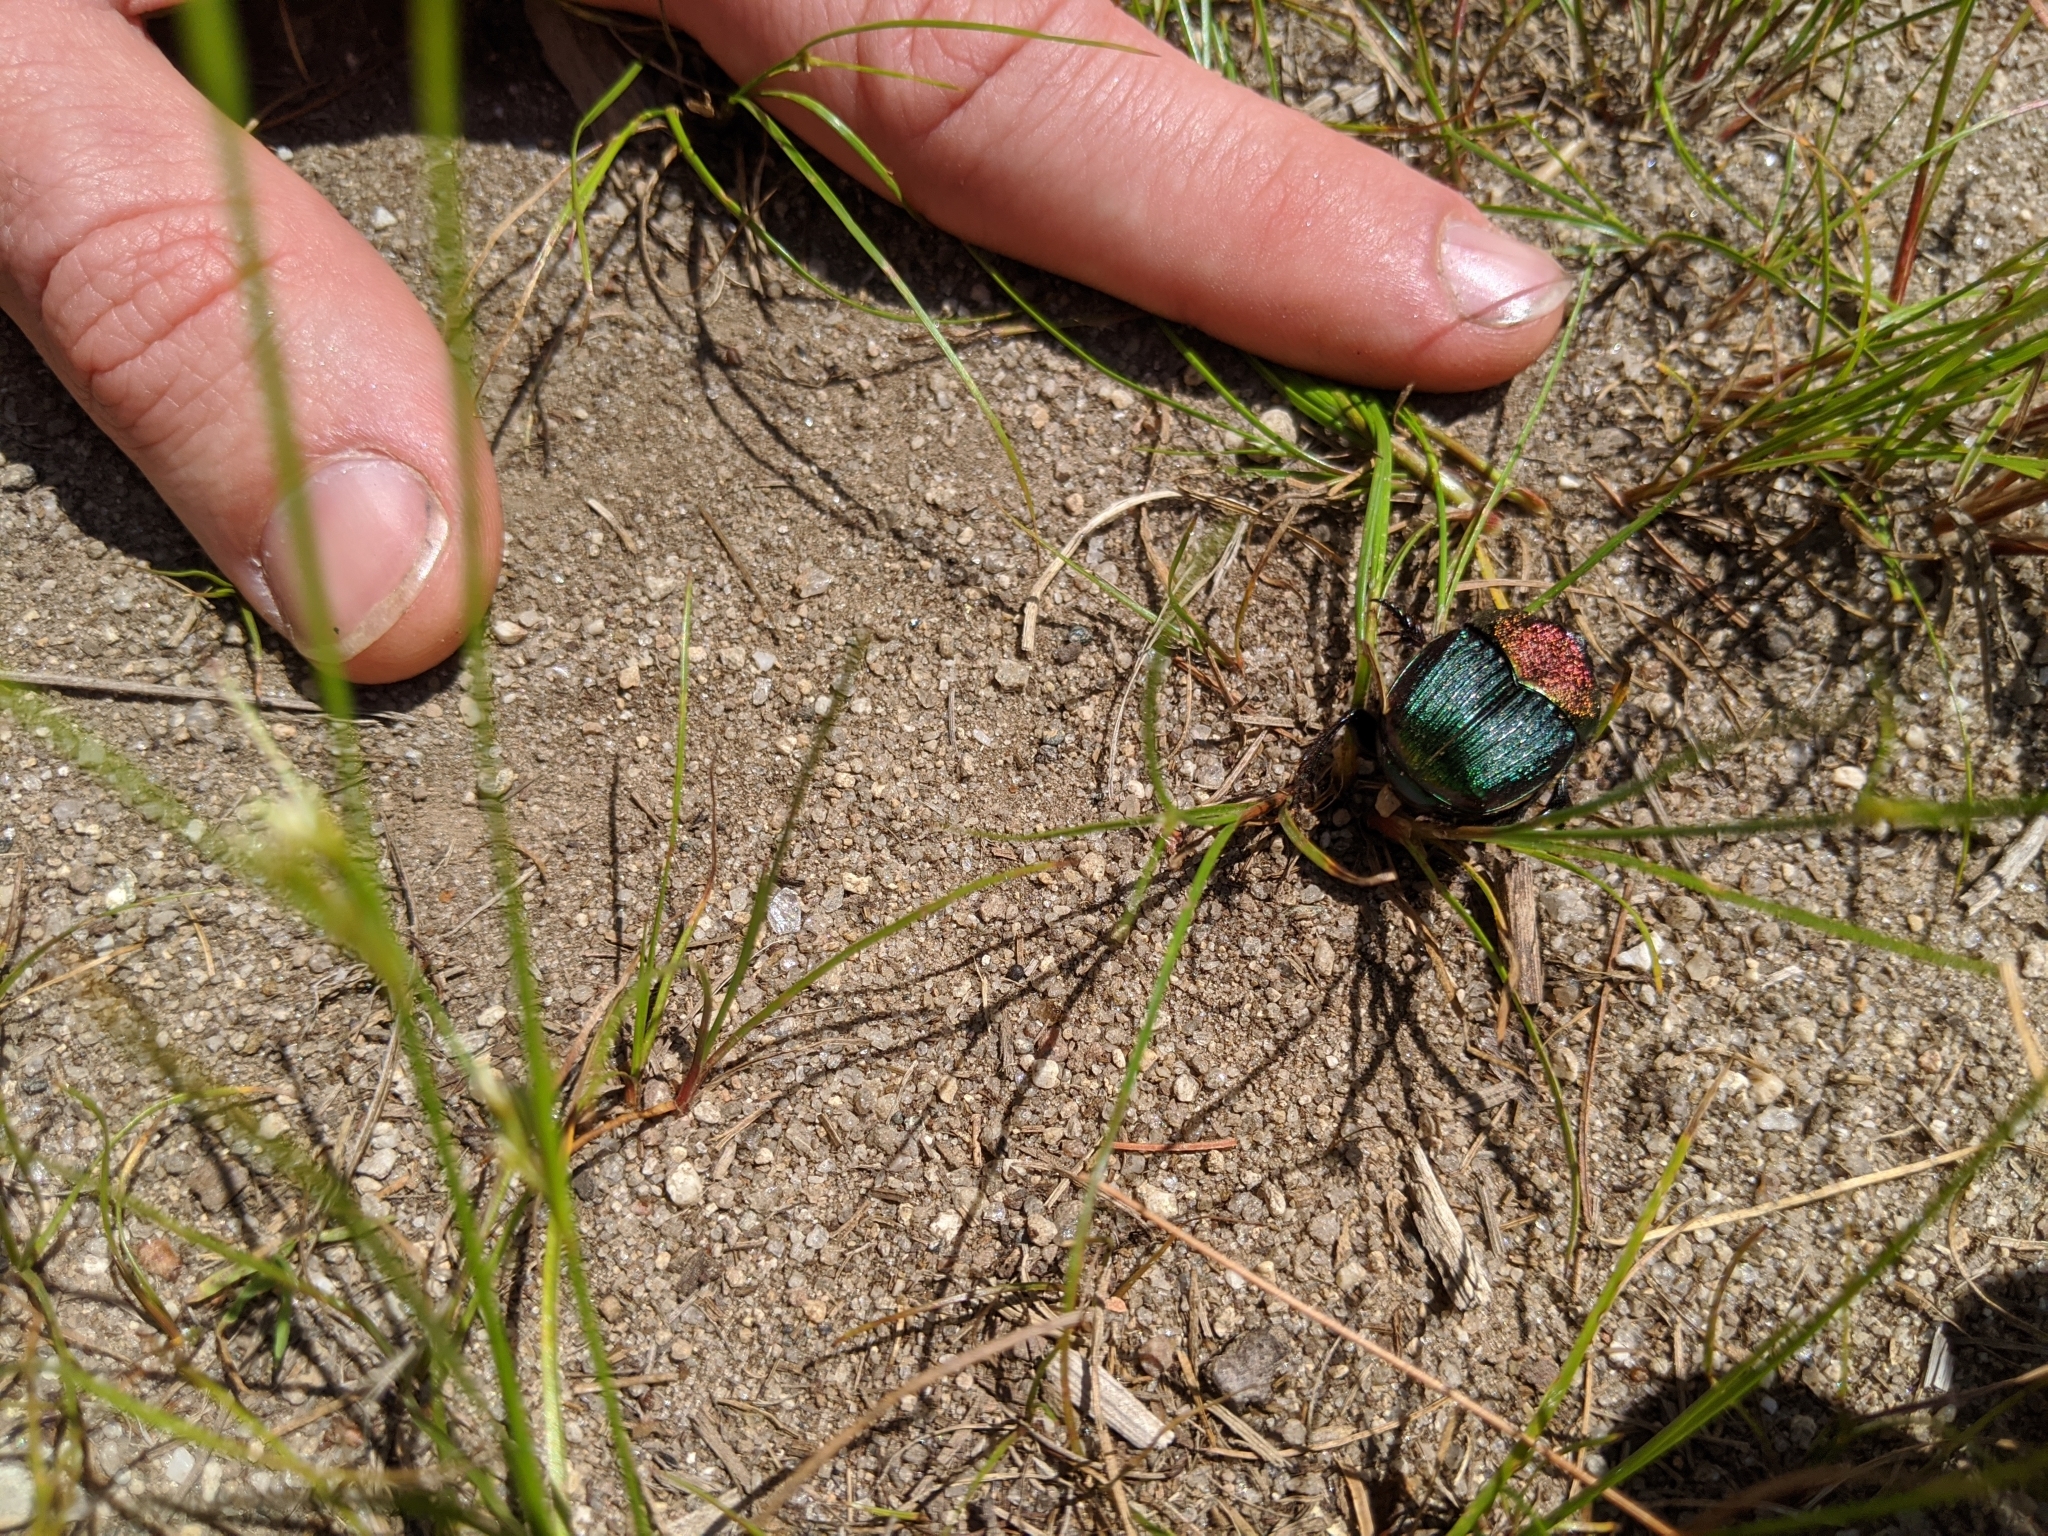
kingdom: Animalia
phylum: Arthropoda
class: Insecta
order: Coleoptera
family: Scarabaeidae
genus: Phanaeus
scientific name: Phanaeus vindex
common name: Rainbow scarab
